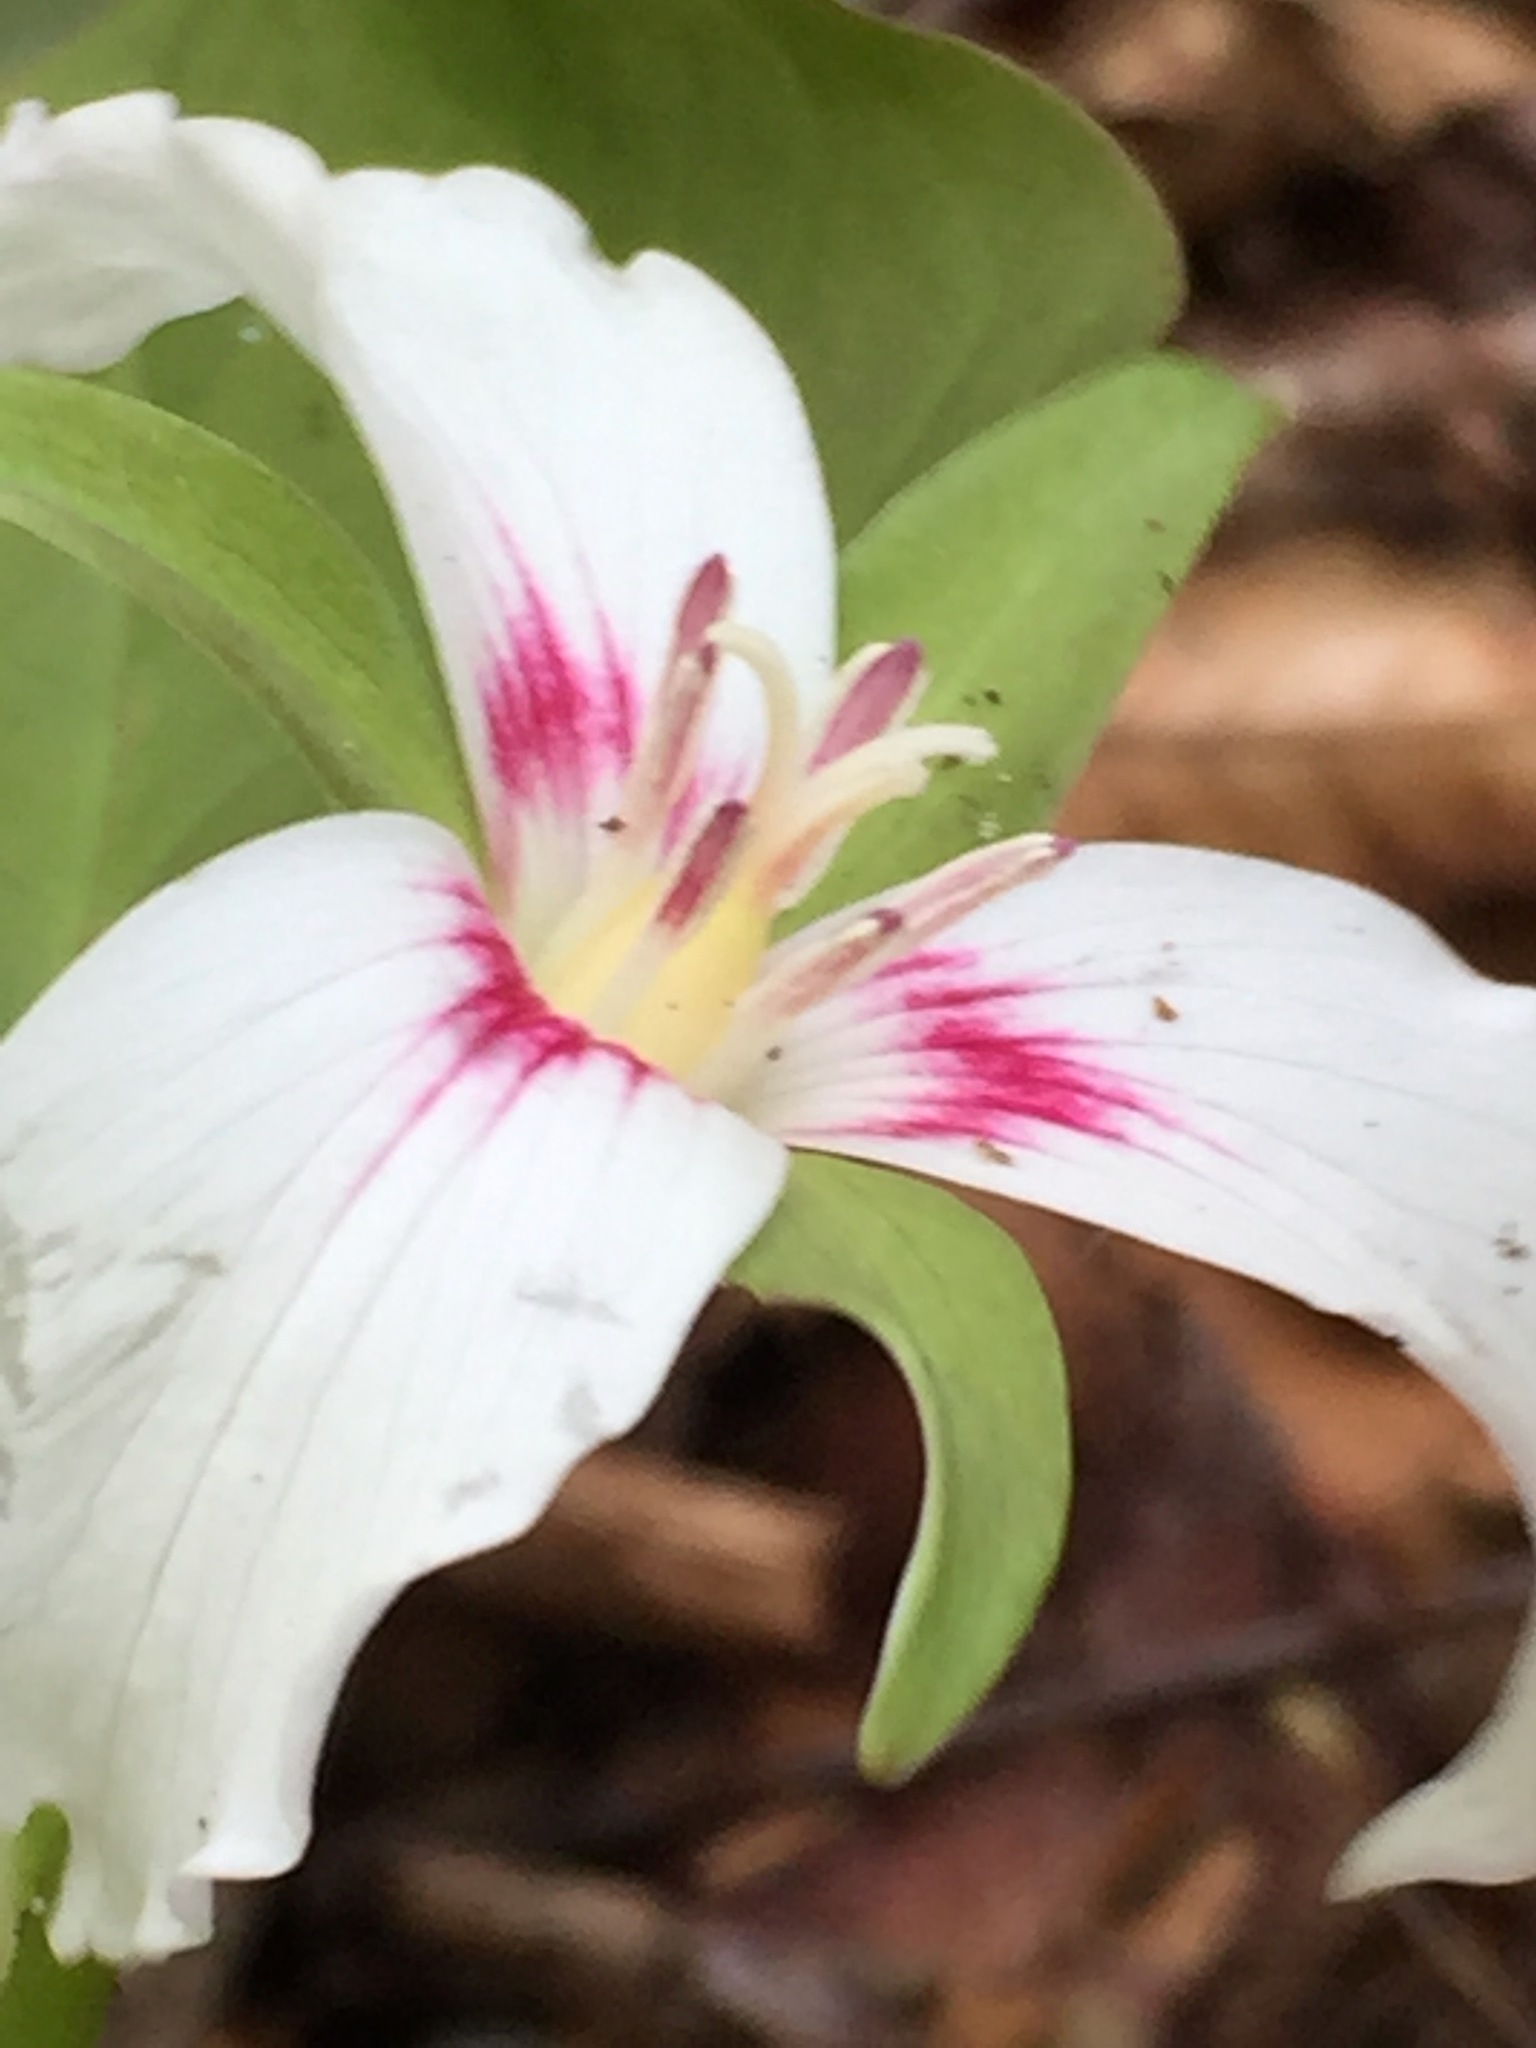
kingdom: Plantae
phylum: Tracheophyta
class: Liliopsida
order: Liliales
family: Melanthiaceae
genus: Trillium
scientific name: Trillium undulatum
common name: Paint trillium
